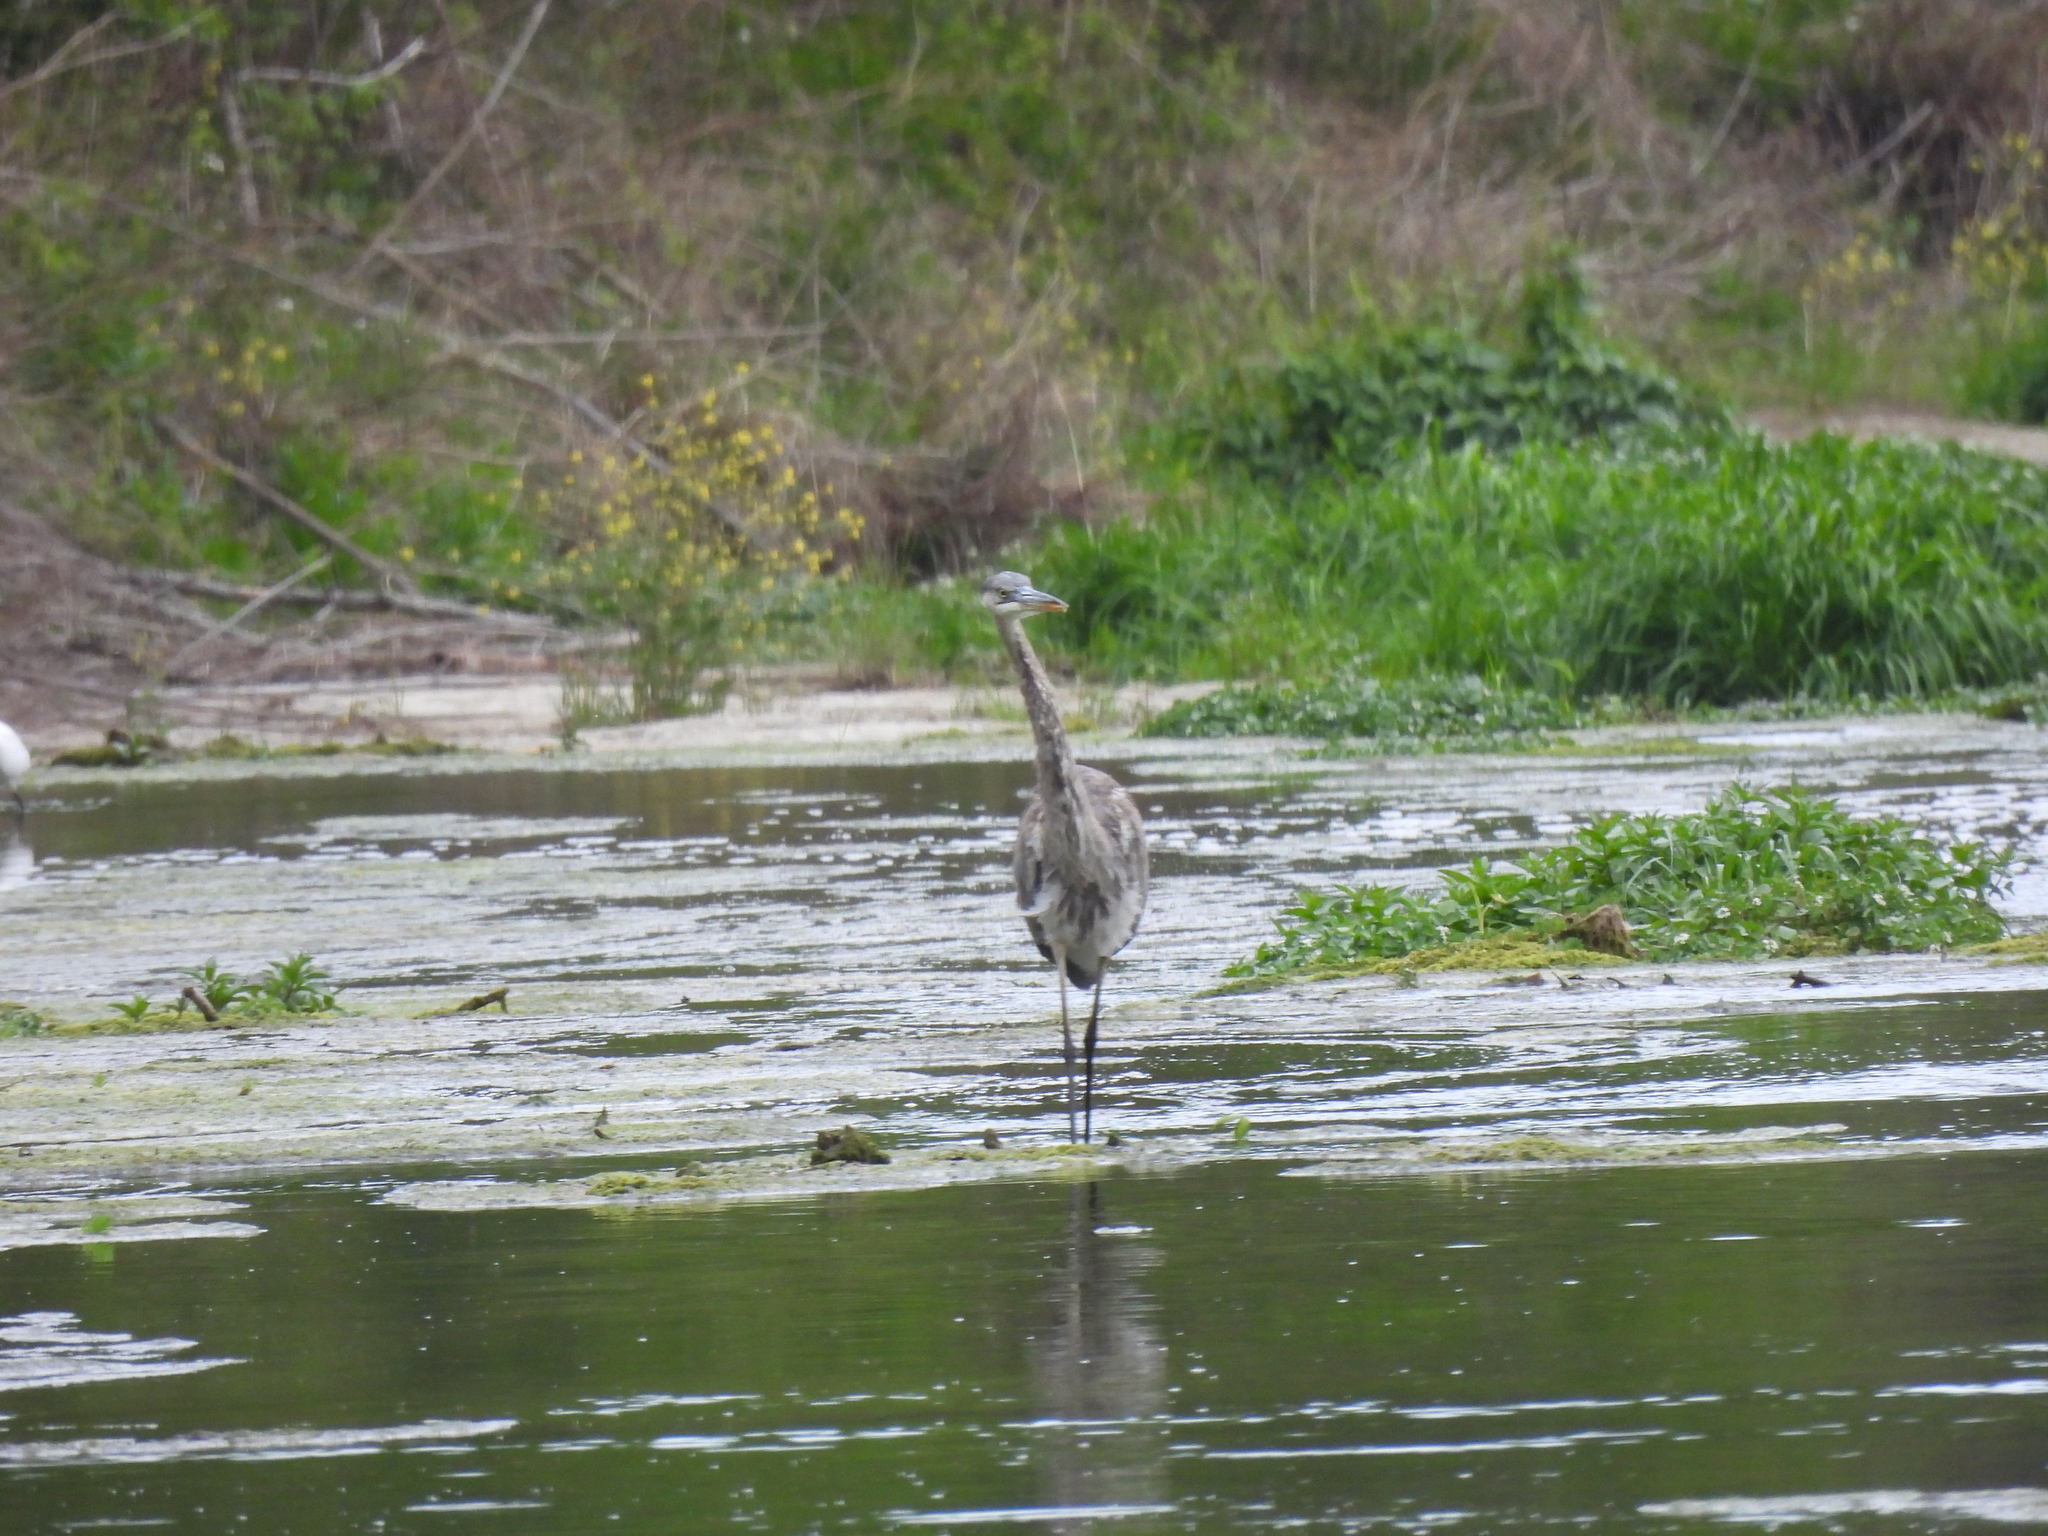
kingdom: Animalia
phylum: Chordata
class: Aves
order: Pelecaniformes
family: Ardeidae
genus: Ardea
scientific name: Ardea herodias
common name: Great blue heron
